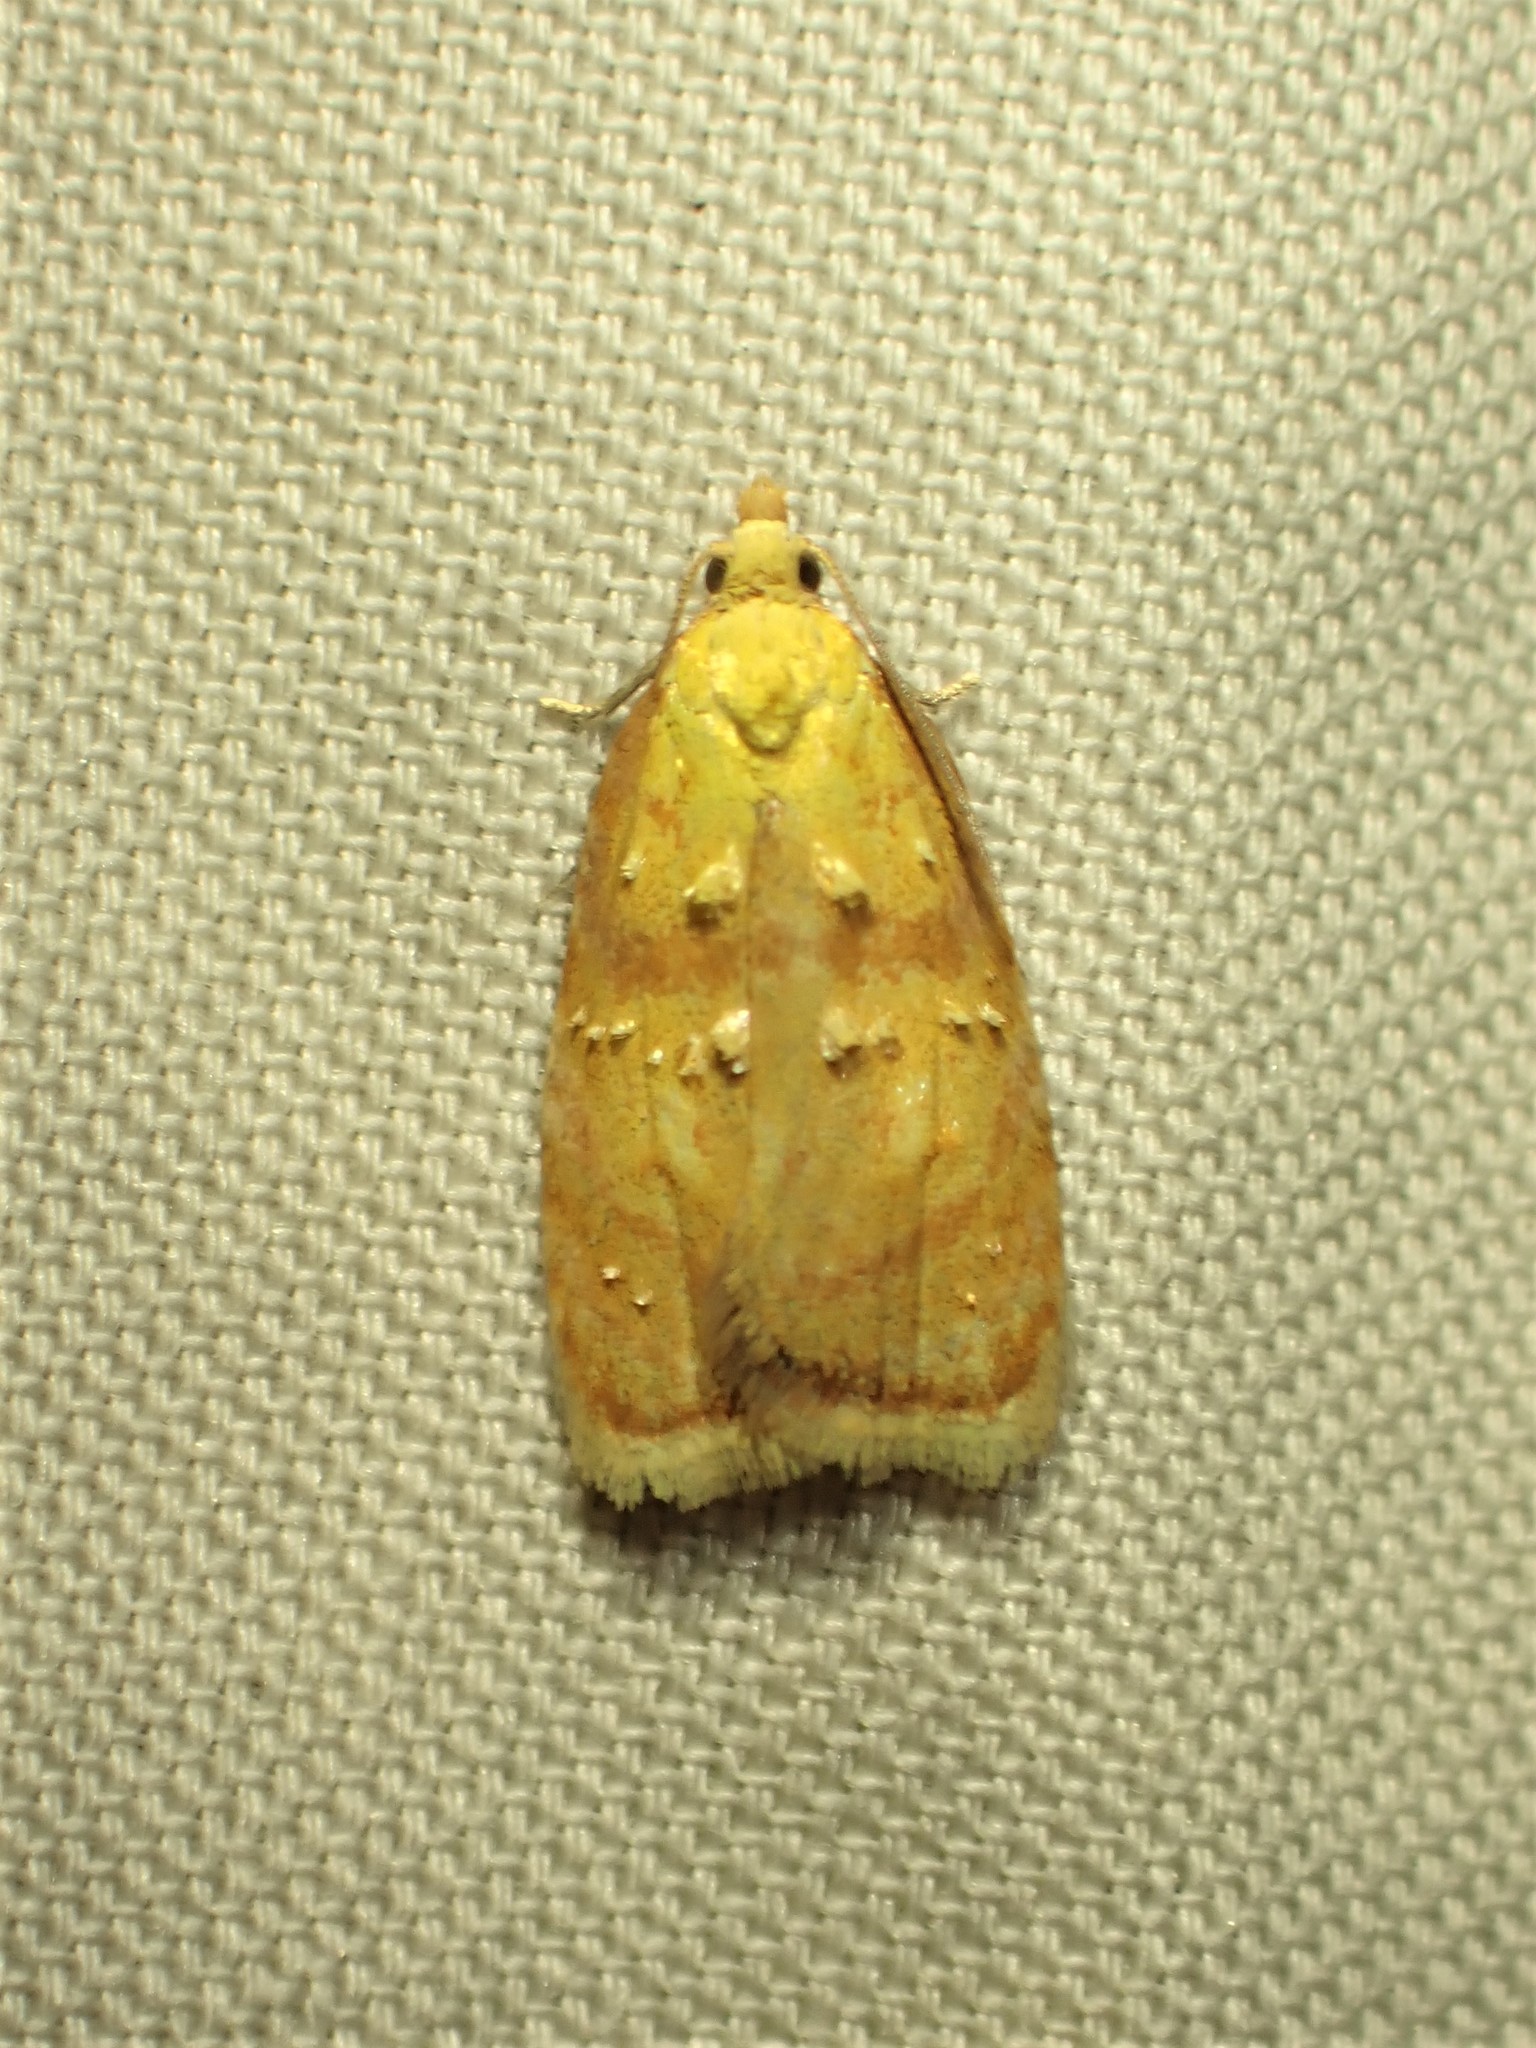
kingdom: Animalia
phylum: Arthropoda
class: Insecta
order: Lepidoptera
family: Tortricidae
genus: Acleris
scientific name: Acleris curvalana
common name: Blueberry leaftier moth
